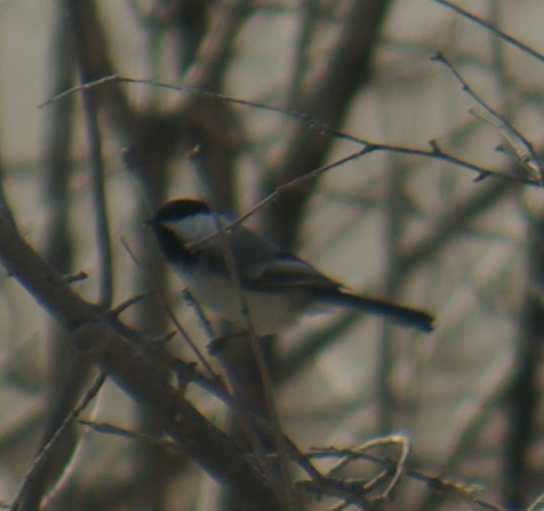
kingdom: Animalia
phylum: Chordata
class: Aves
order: Passeriformes
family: Paridae
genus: Poecile
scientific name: Poecile atricapillus
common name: Black-capped chickadee
